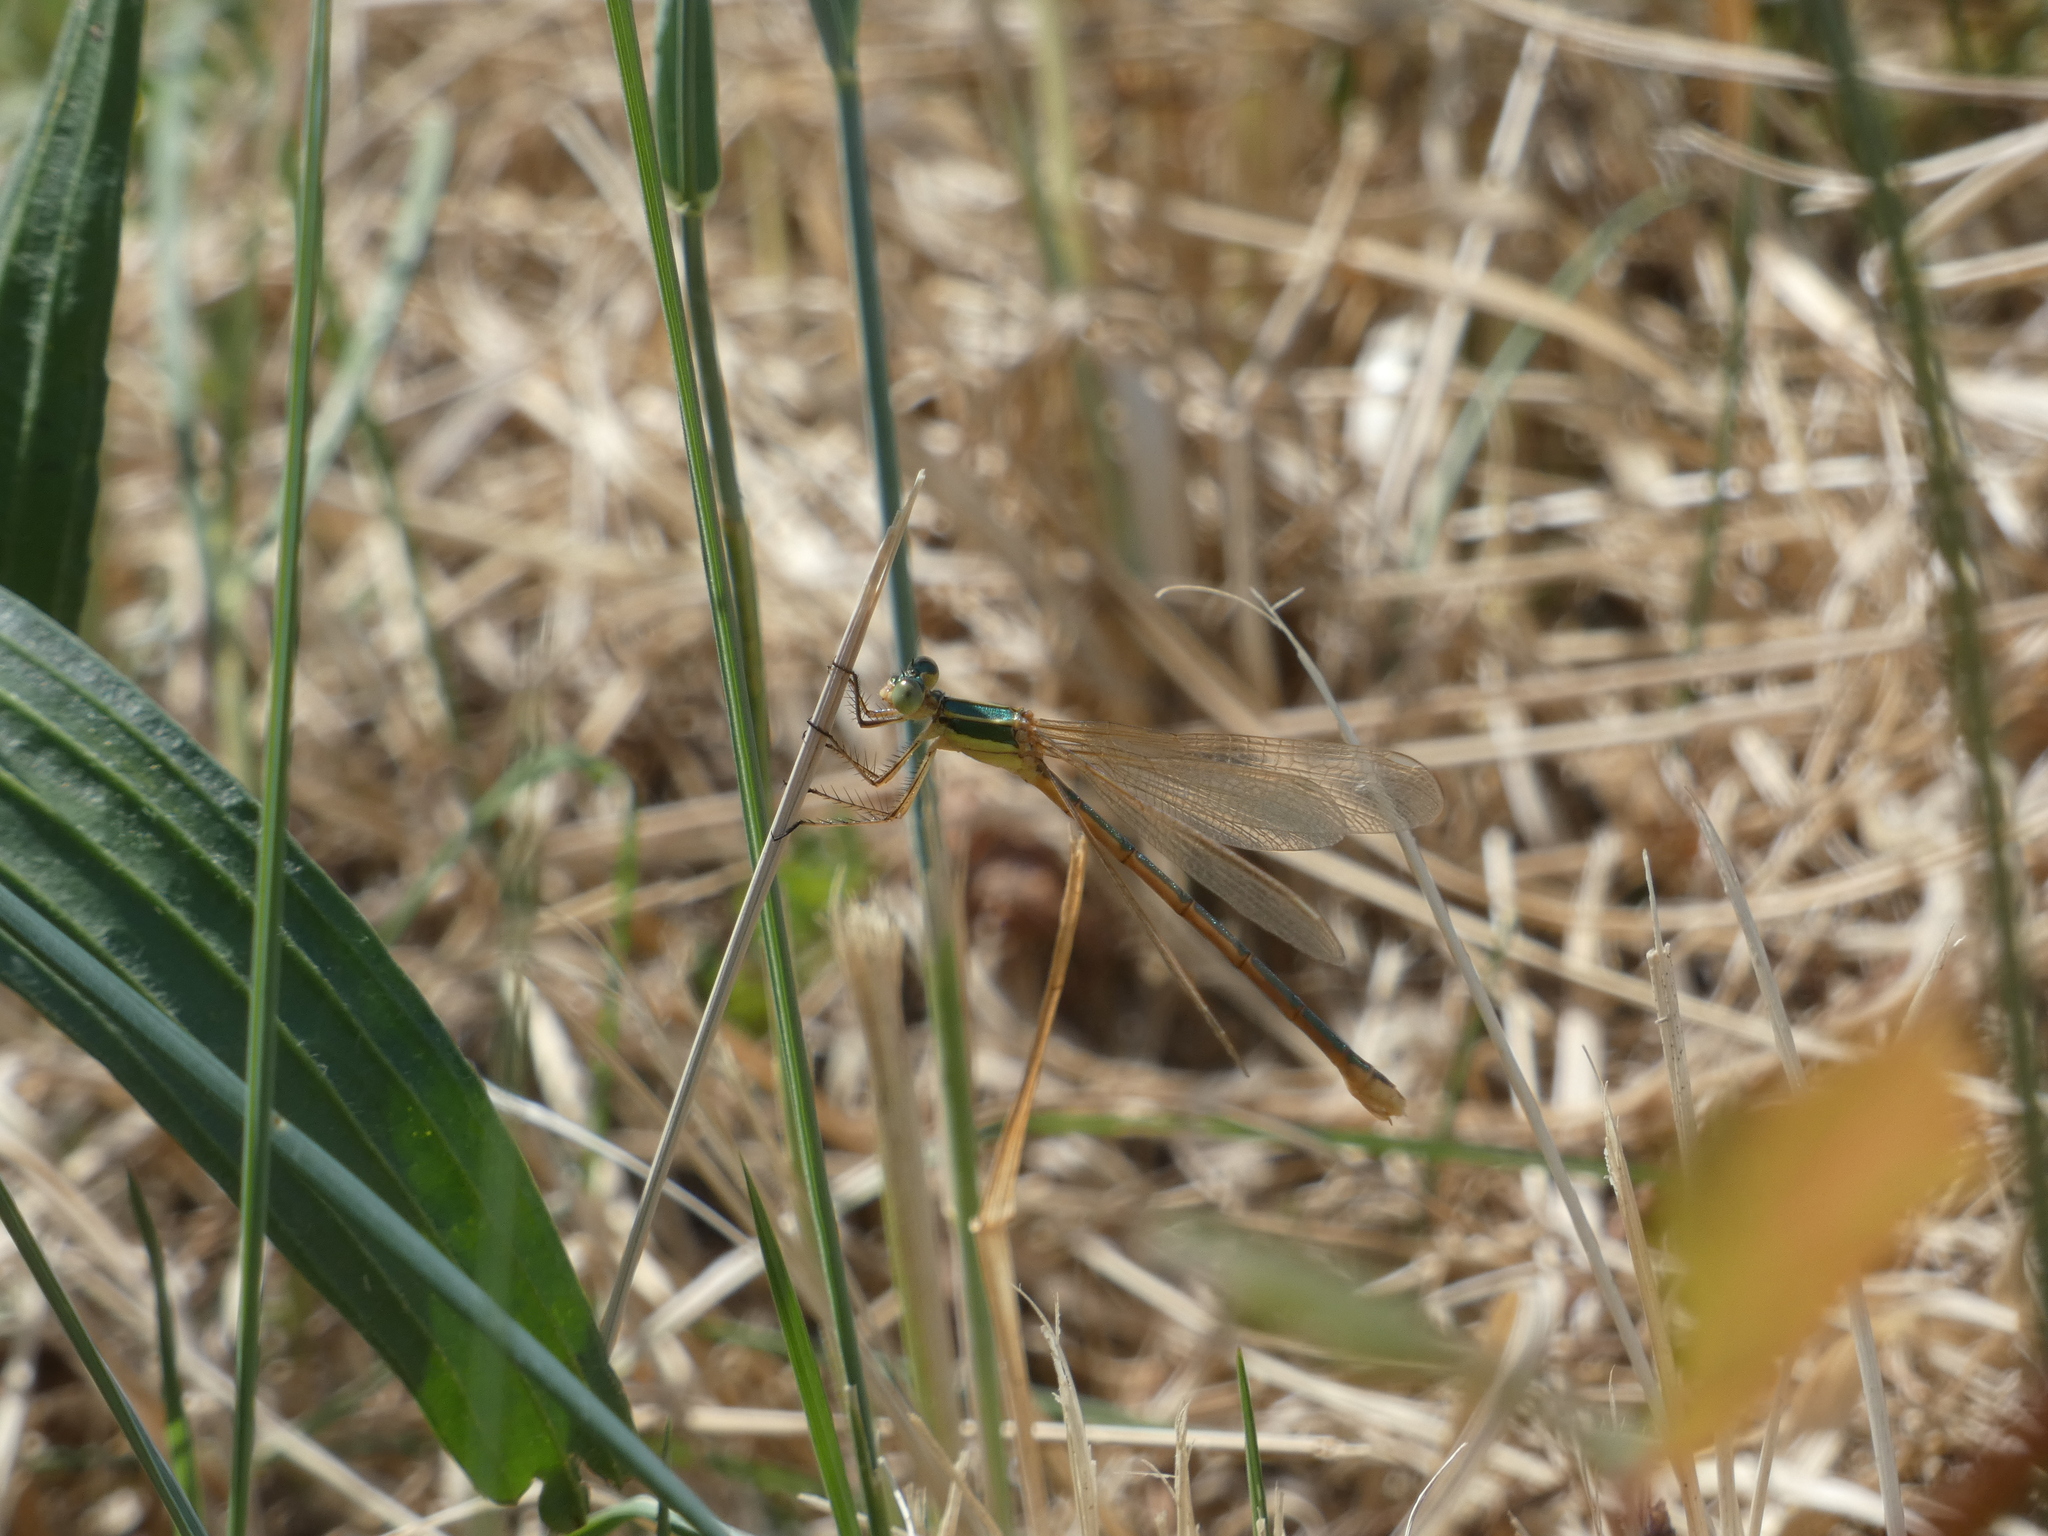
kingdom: Animalia
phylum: Arthropoda
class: Insecta
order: Odonata
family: Lestidae
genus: Lestes
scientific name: Lestes barbarus
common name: Migrant spreadwing
